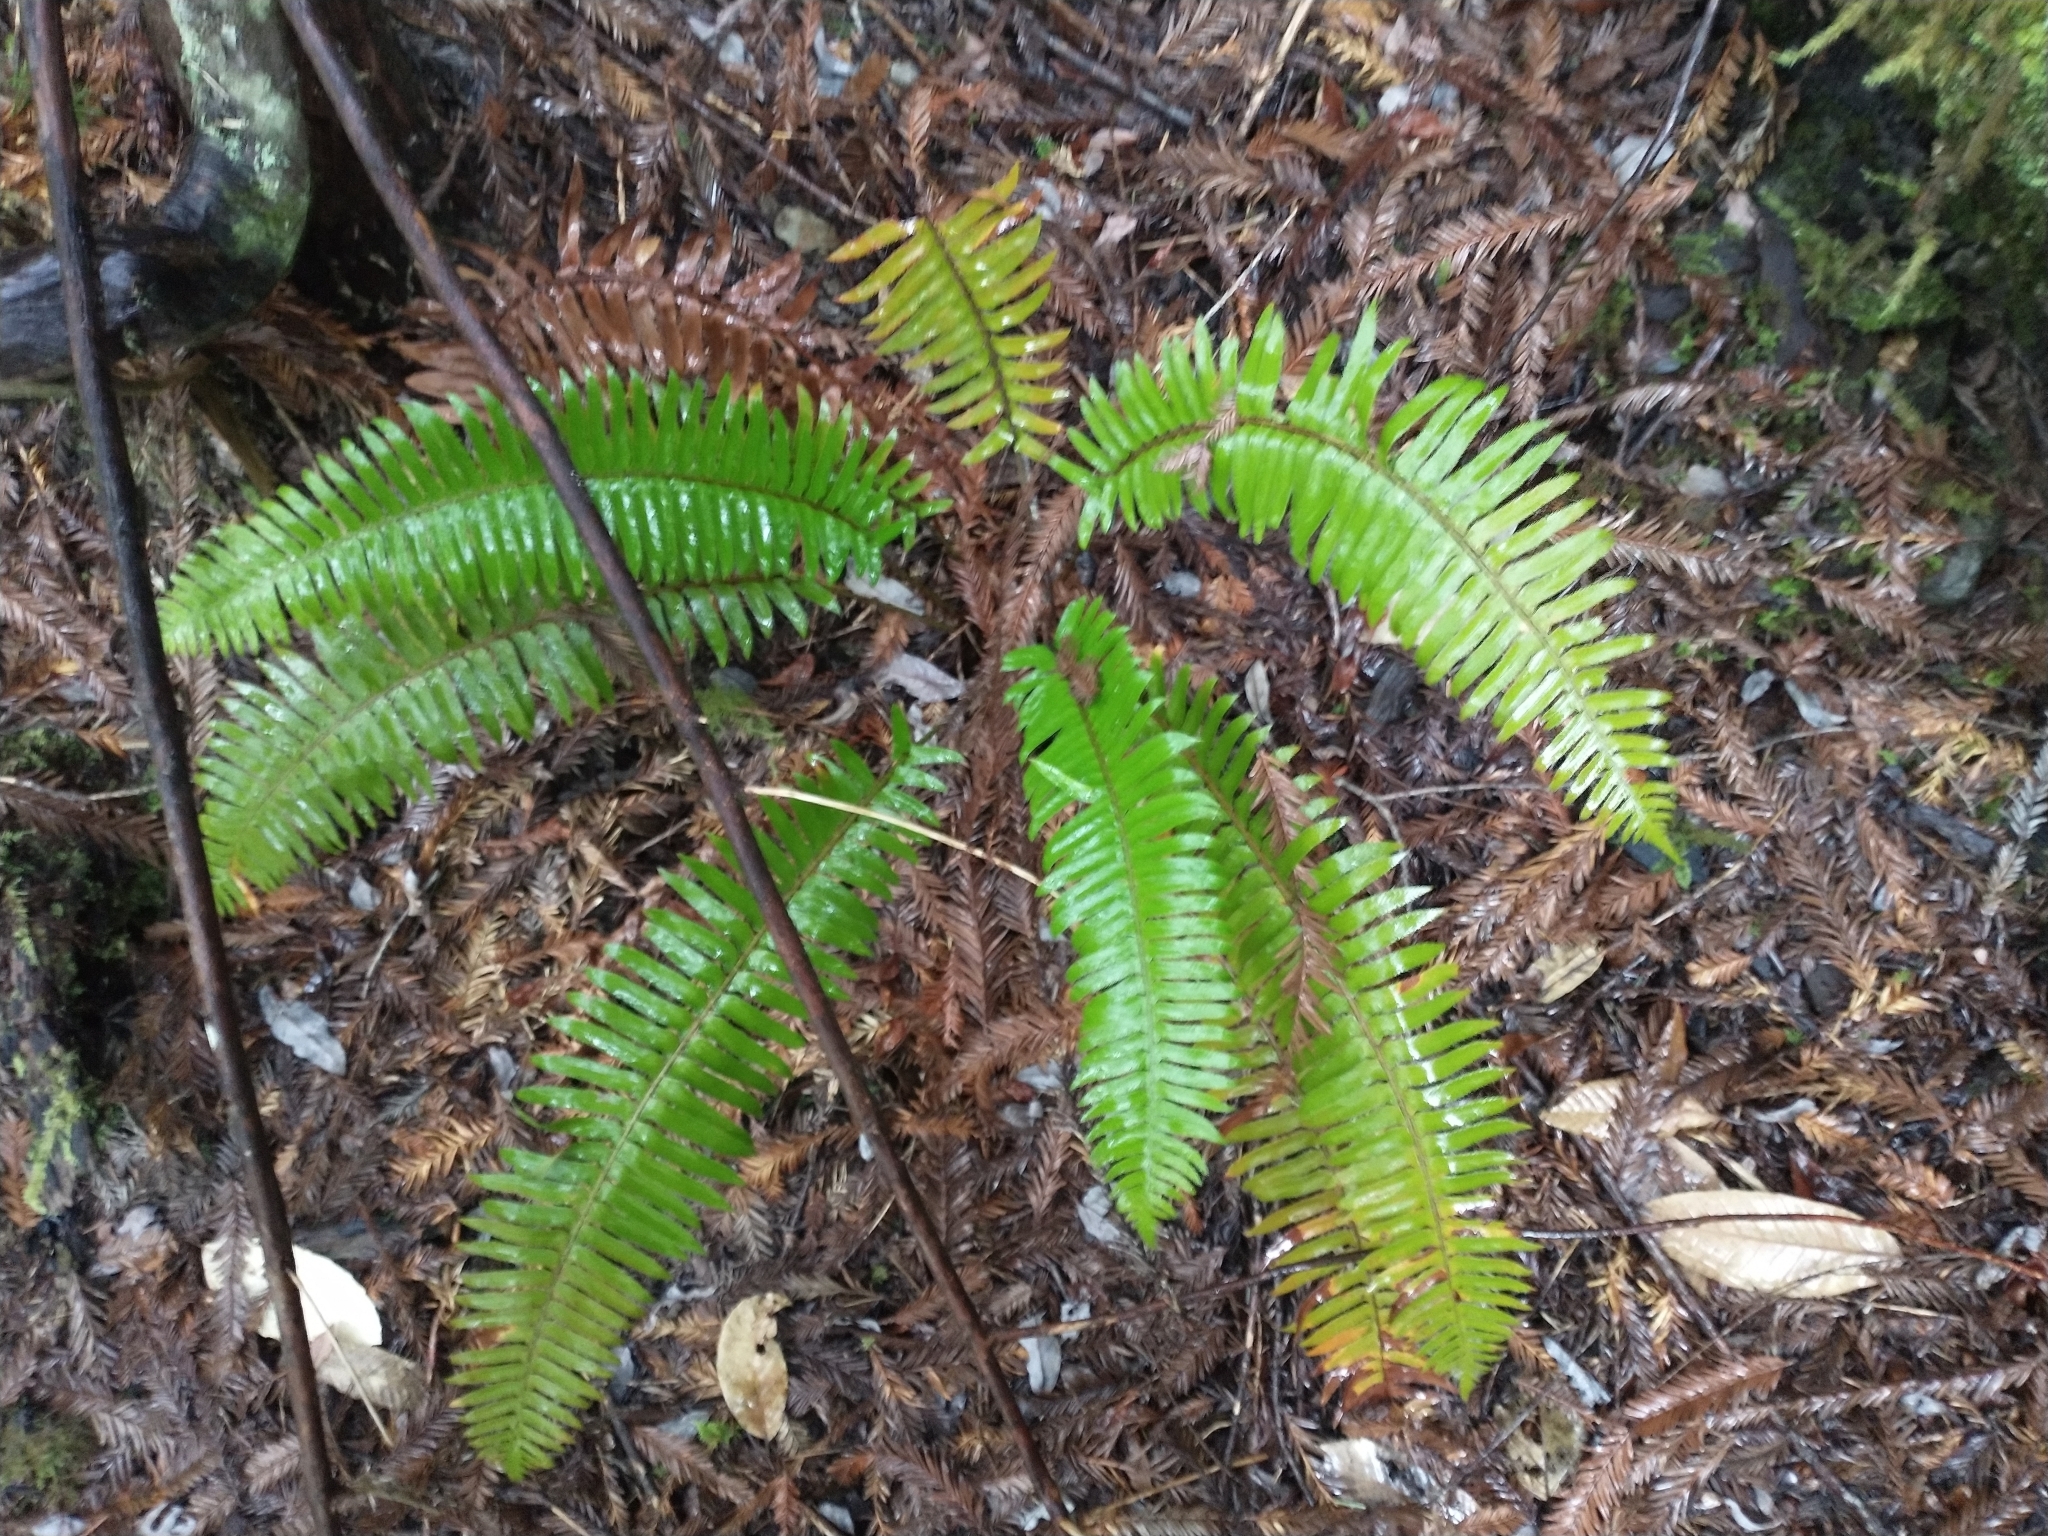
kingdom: Plantae
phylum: Tracheophyta
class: Polypodiopsida
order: Polypodiales
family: Dryopteridaceae
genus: Polystichum
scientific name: Polystichum munitum
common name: Western sword-fern
